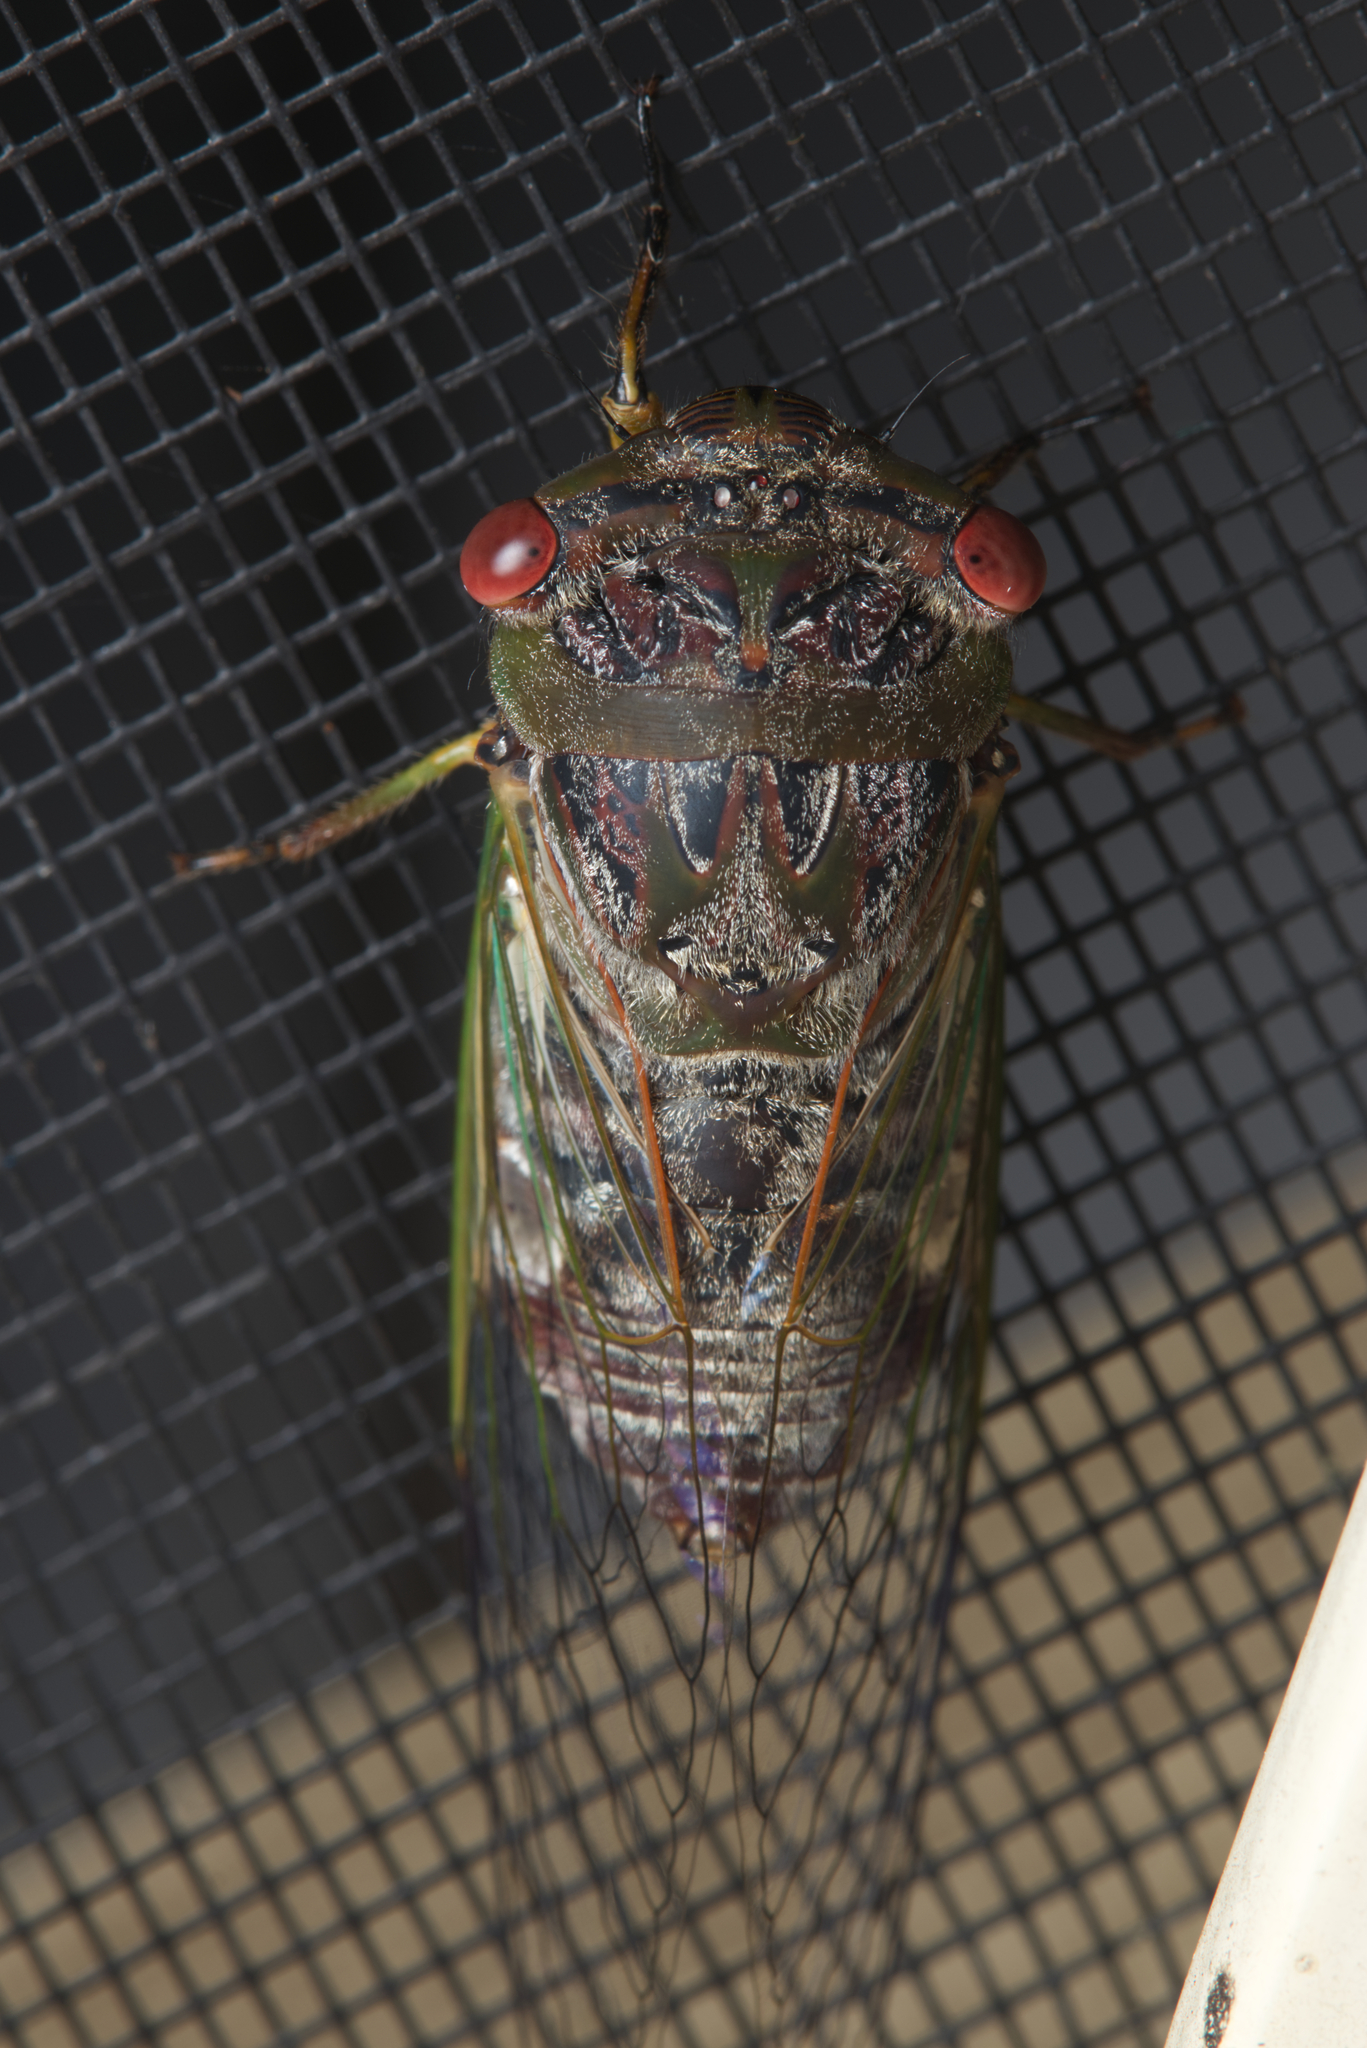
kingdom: Animalia
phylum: Arthropoda
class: Insecta
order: Hemiptera
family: Cicadidae
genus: Psaltoda
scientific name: Psaltoda claripennis
